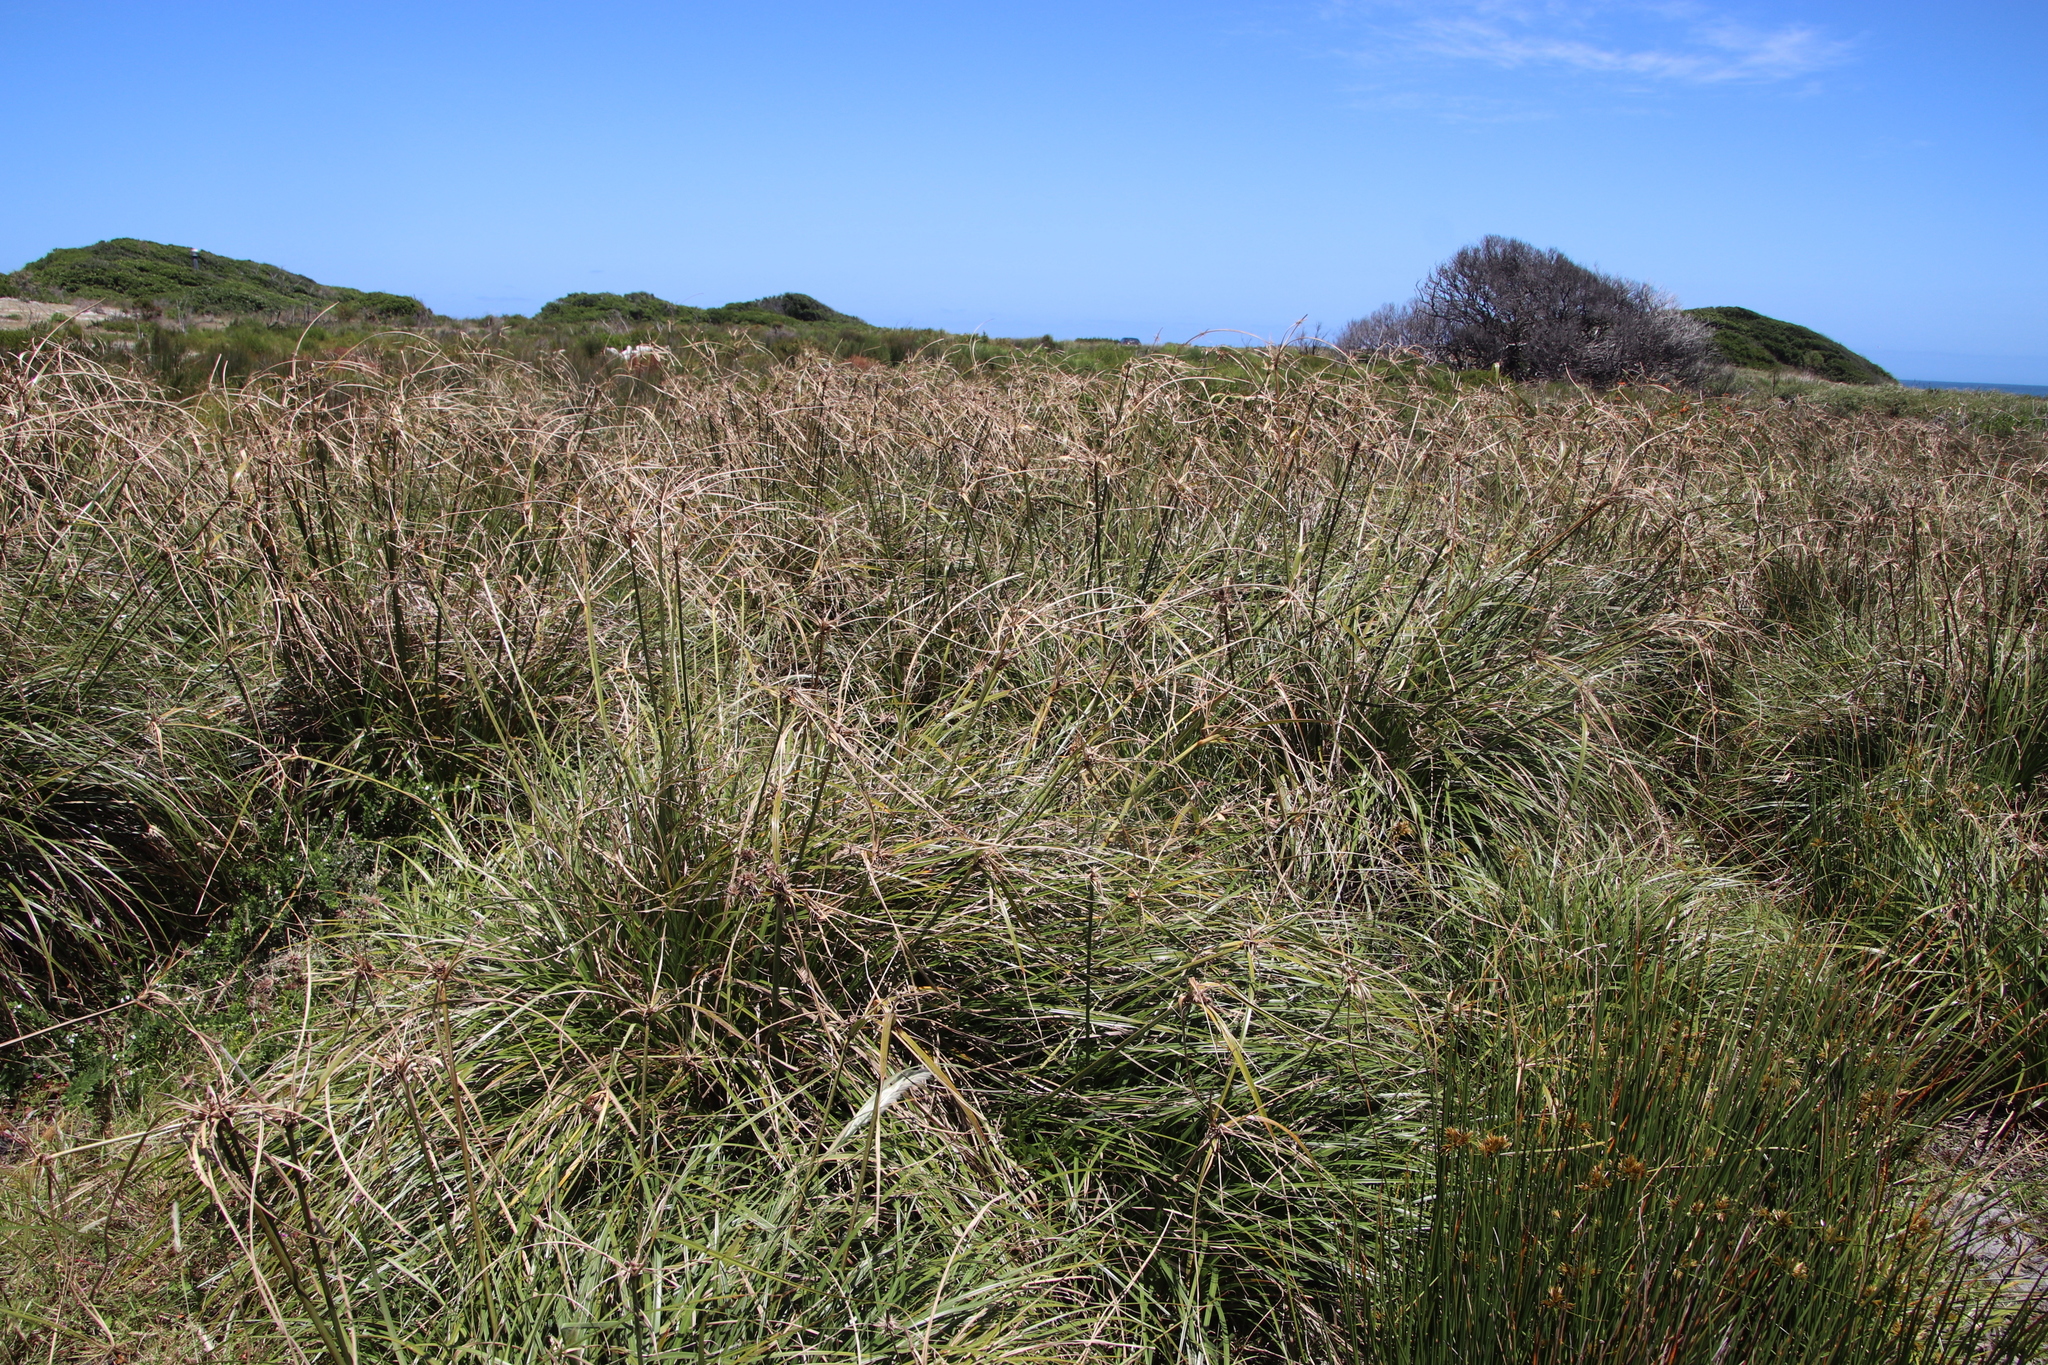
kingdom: Plantae
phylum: Tracheophyta
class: Liliopsida
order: Poales
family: Cyperaceae
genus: Cyperus
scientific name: Cyperus thunbergii
